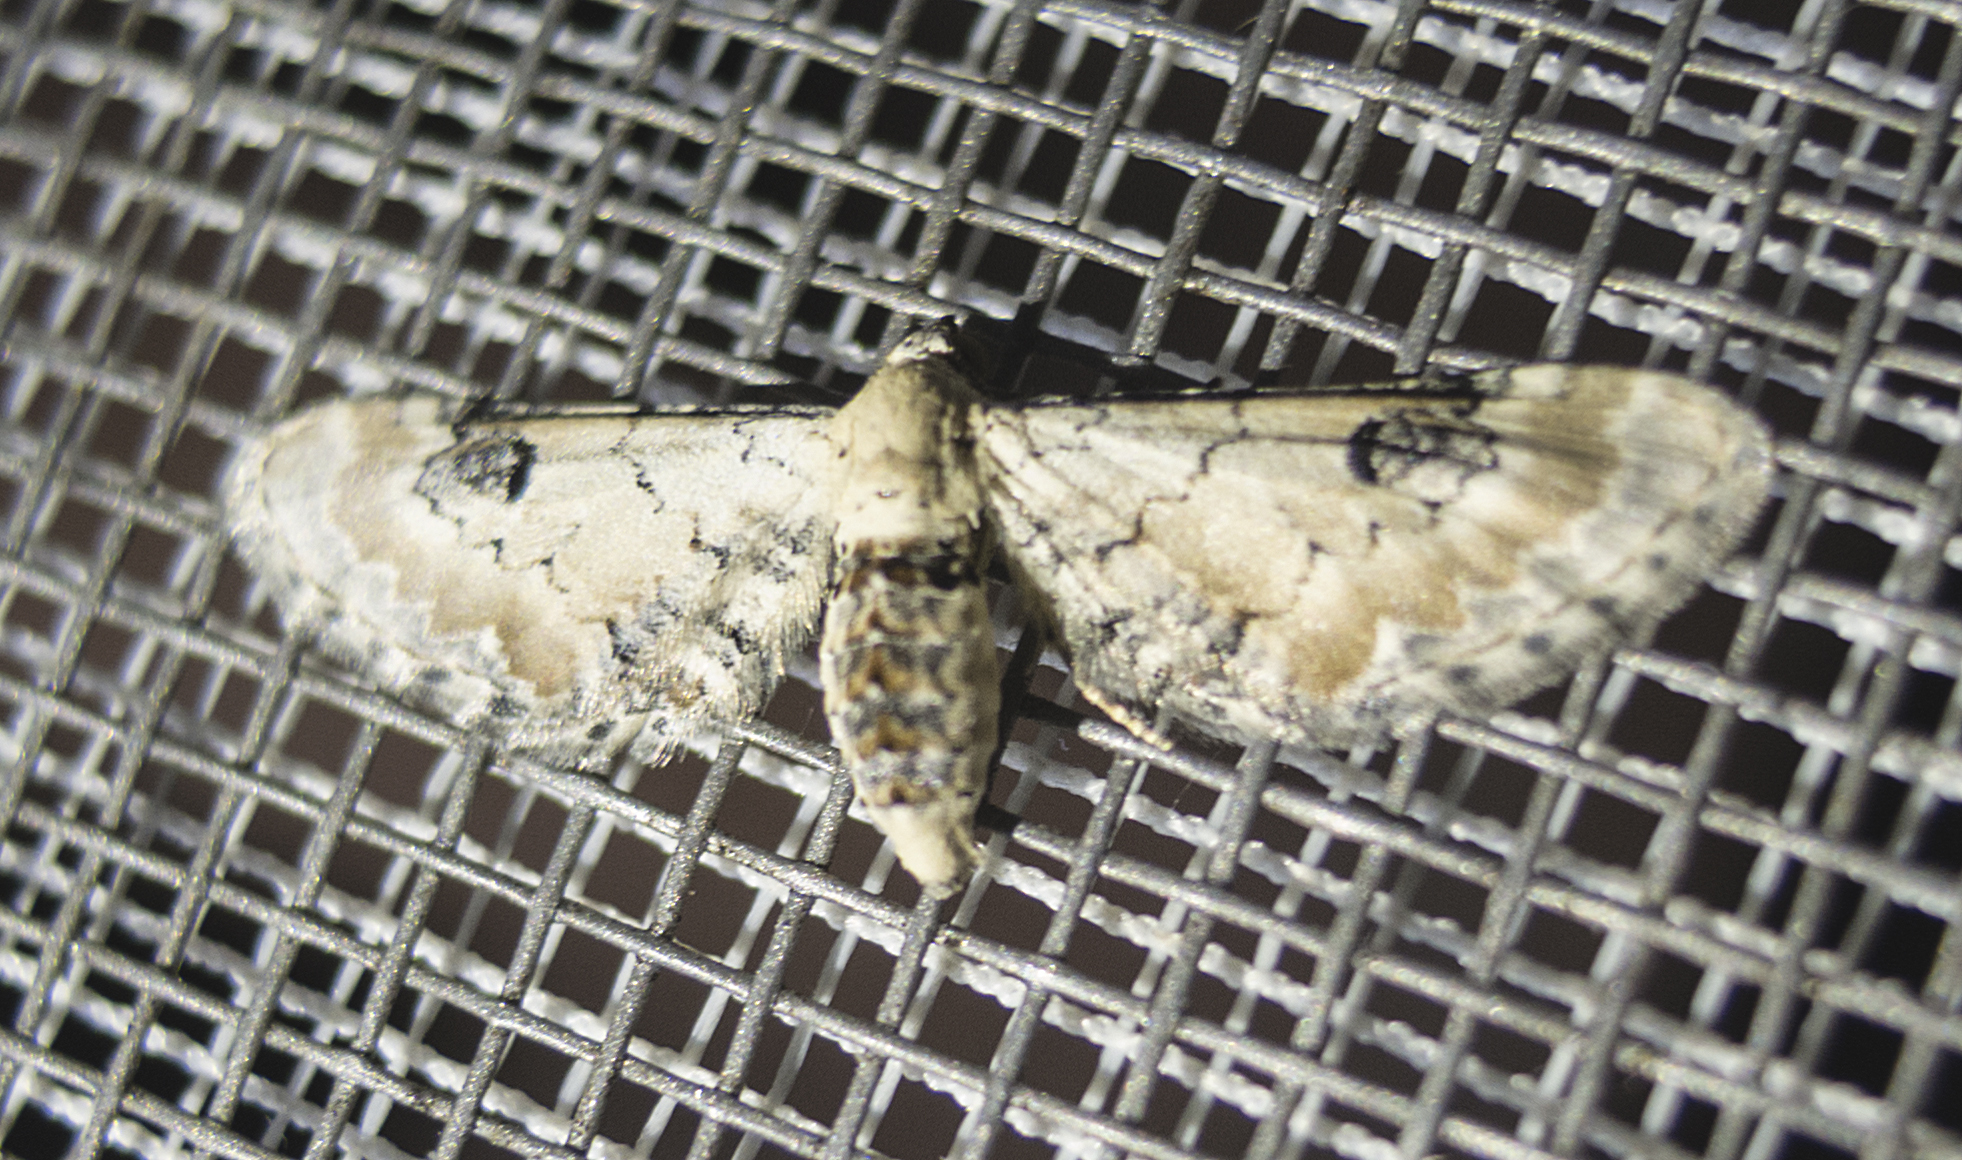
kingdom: Animalia
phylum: Arthropoda
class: Insecta
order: Lepidoptera
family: Geometridae
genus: Eupithecia
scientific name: Eupithecia centaureata
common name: Lime-speck pug
